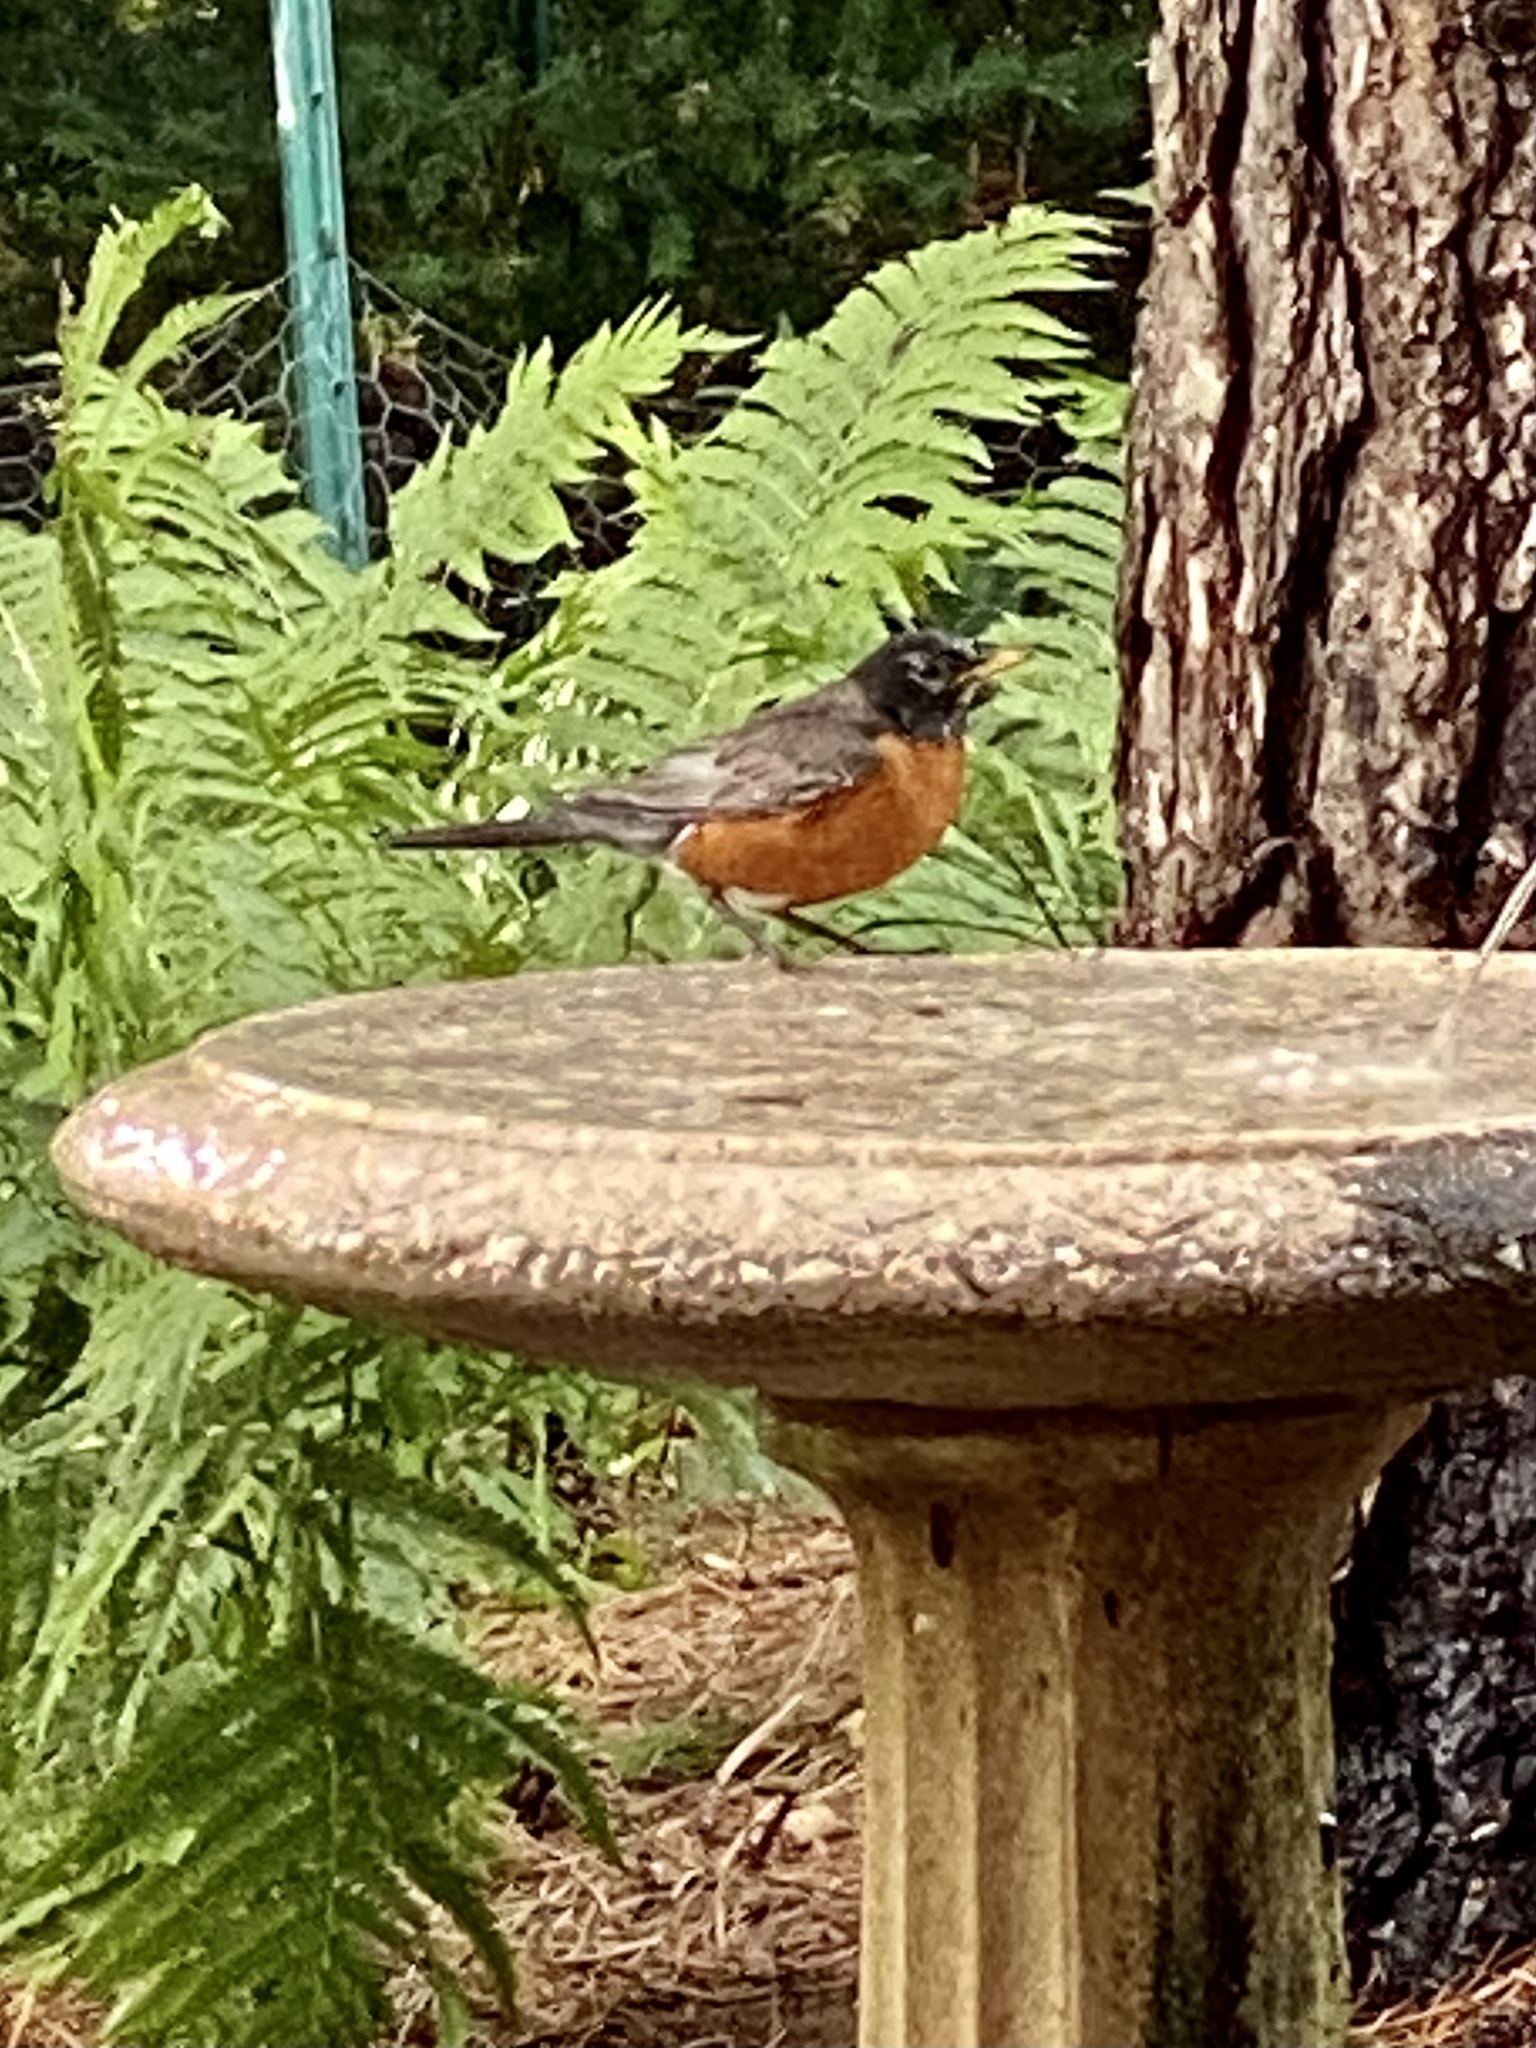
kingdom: Animalia
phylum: Chordata
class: Aves
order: Passeriformes
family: Turdidae
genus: Turdus
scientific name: Turdus migratorius
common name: American robin
